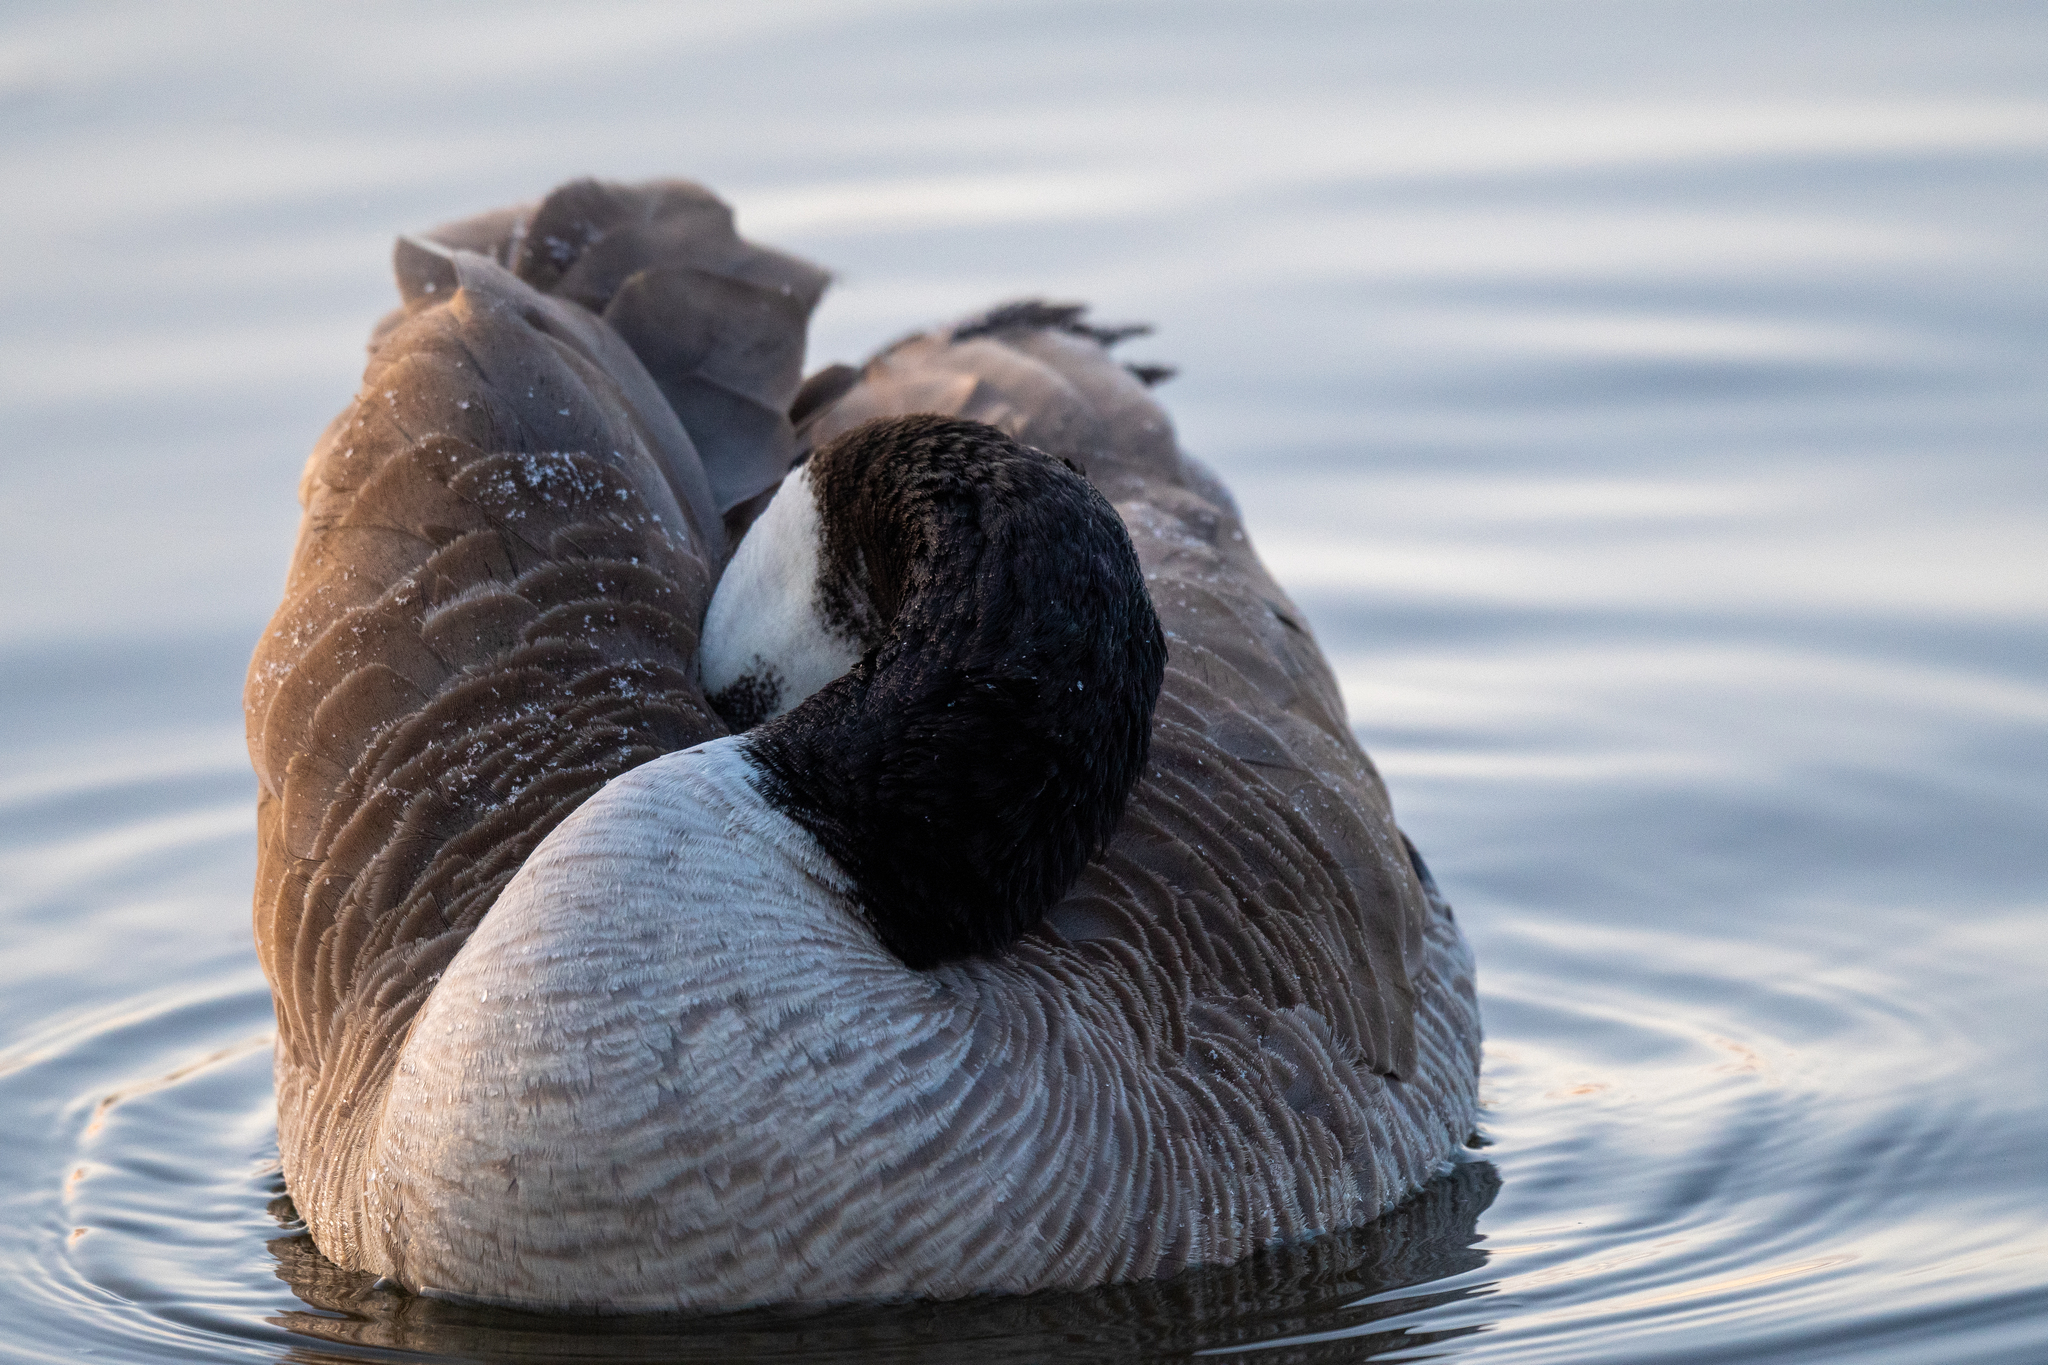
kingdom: Animalia
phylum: Chordata
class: Aves
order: Anseriformes
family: Anatidae
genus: Branta
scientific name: Branta canadensis
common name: Canada goose
